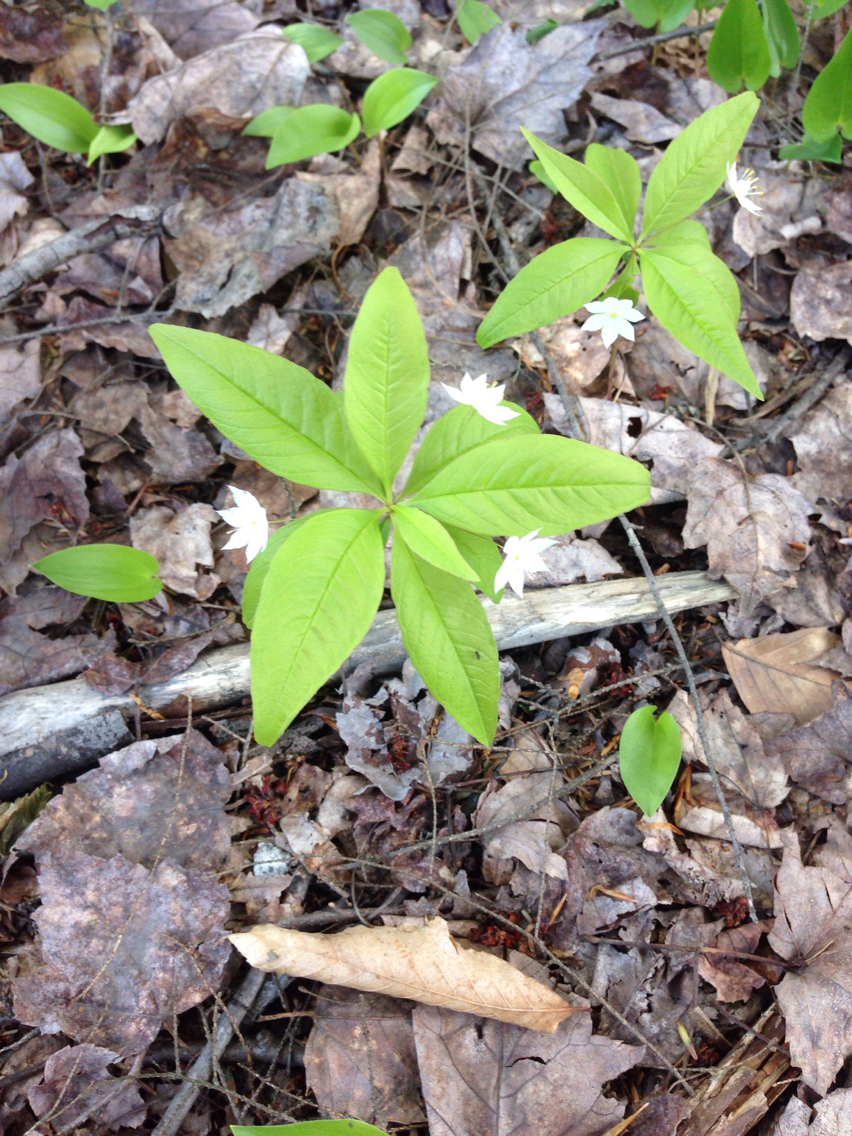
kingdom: Plantae
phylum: Tracheophyta
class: Magnoliopsida
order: Ericales
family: Primulaceae
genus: Lysimachia
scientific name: Lysimachia borealis
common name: American starflower
